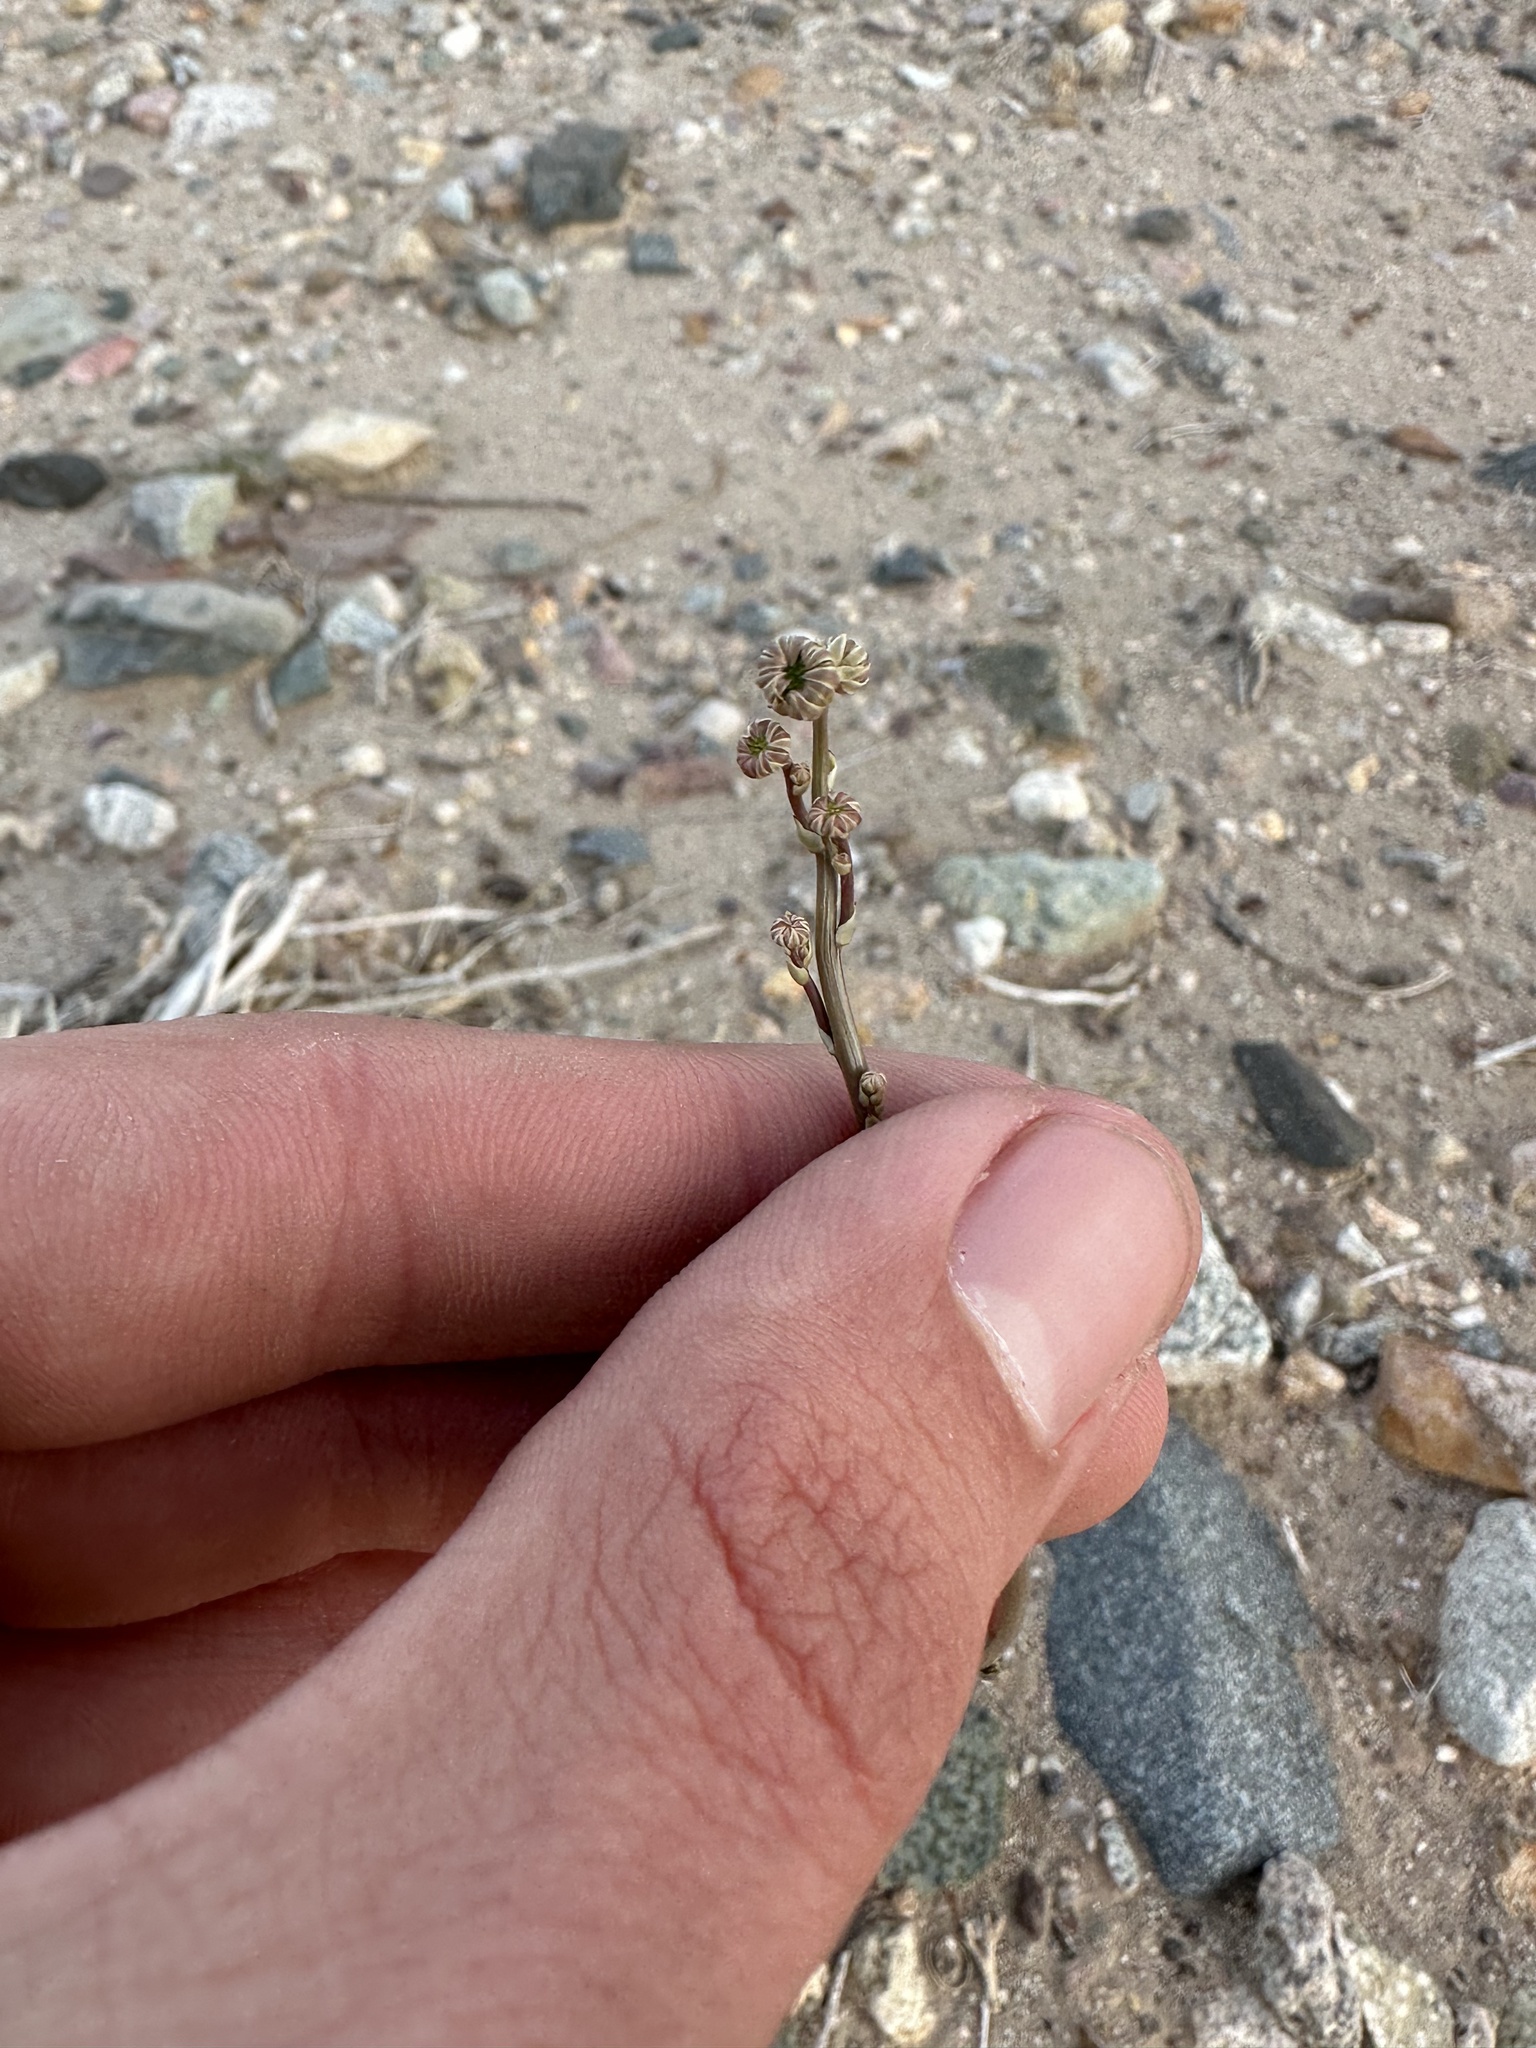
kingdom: Plantae
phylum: Tracheophyta
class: Magnoliopsida
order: Asterales
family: Asteraceae
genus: Atrichoseris
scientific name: Atrichoseris platyphylla
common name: Tobaccoweed
